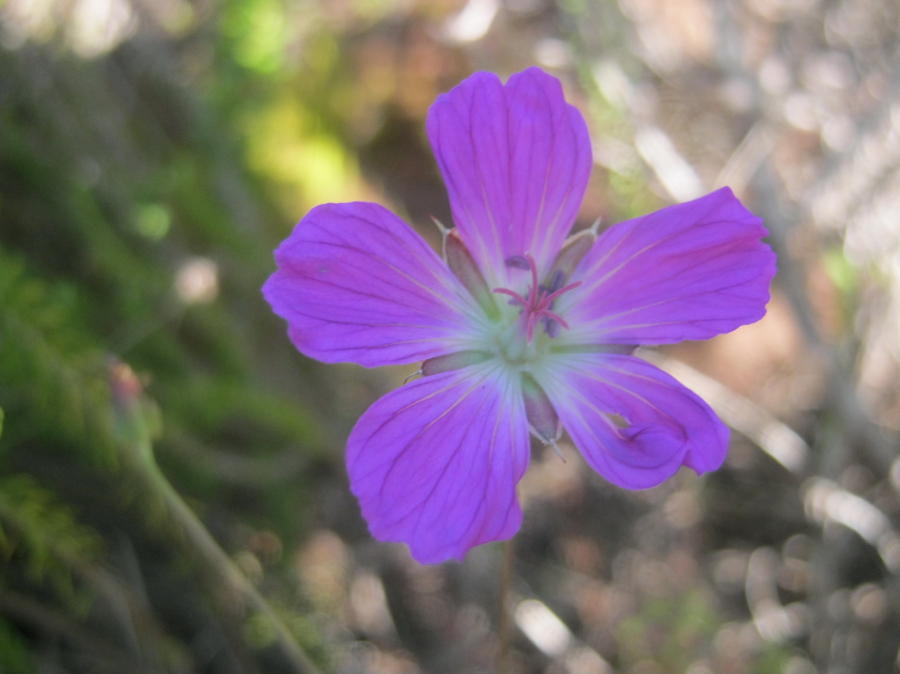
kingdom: Plantae
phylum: Tracheophyta
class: Magnoliopsida
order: Geraniales
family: Geraniaceae
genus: Geranium
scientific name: Geranium incanum
